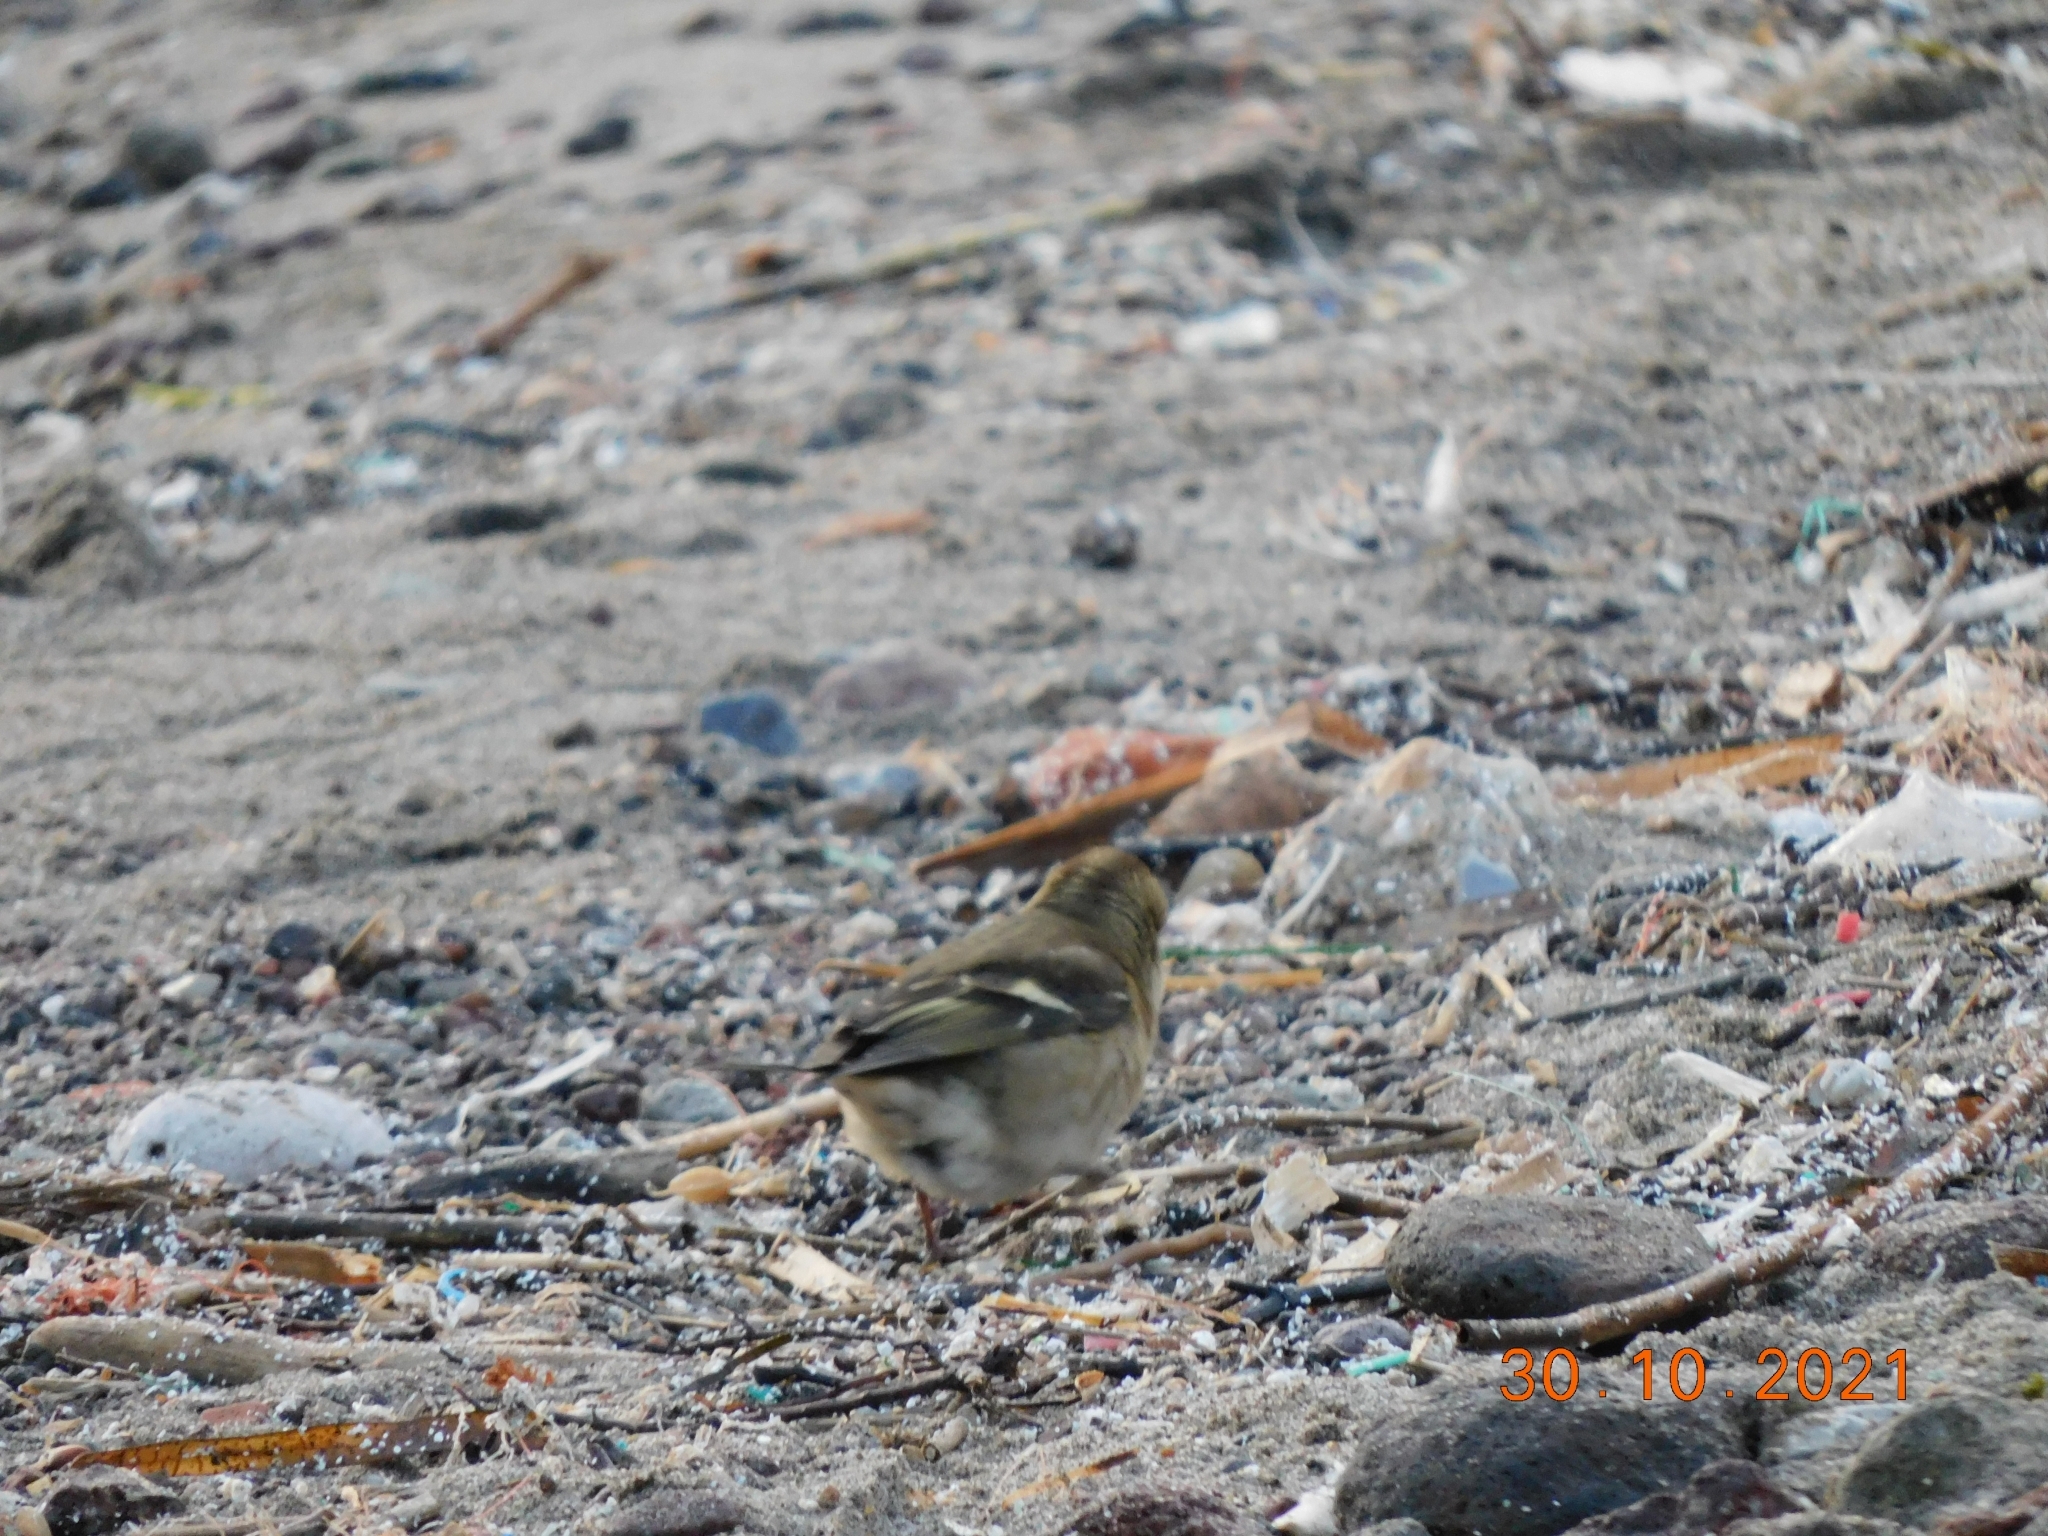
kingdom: Animalia
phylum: Chordata
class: Aves
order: Passeriformes
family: Fringillidae
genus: Fringilla
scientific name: Fringilla coelebs
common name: Common chaffinch
